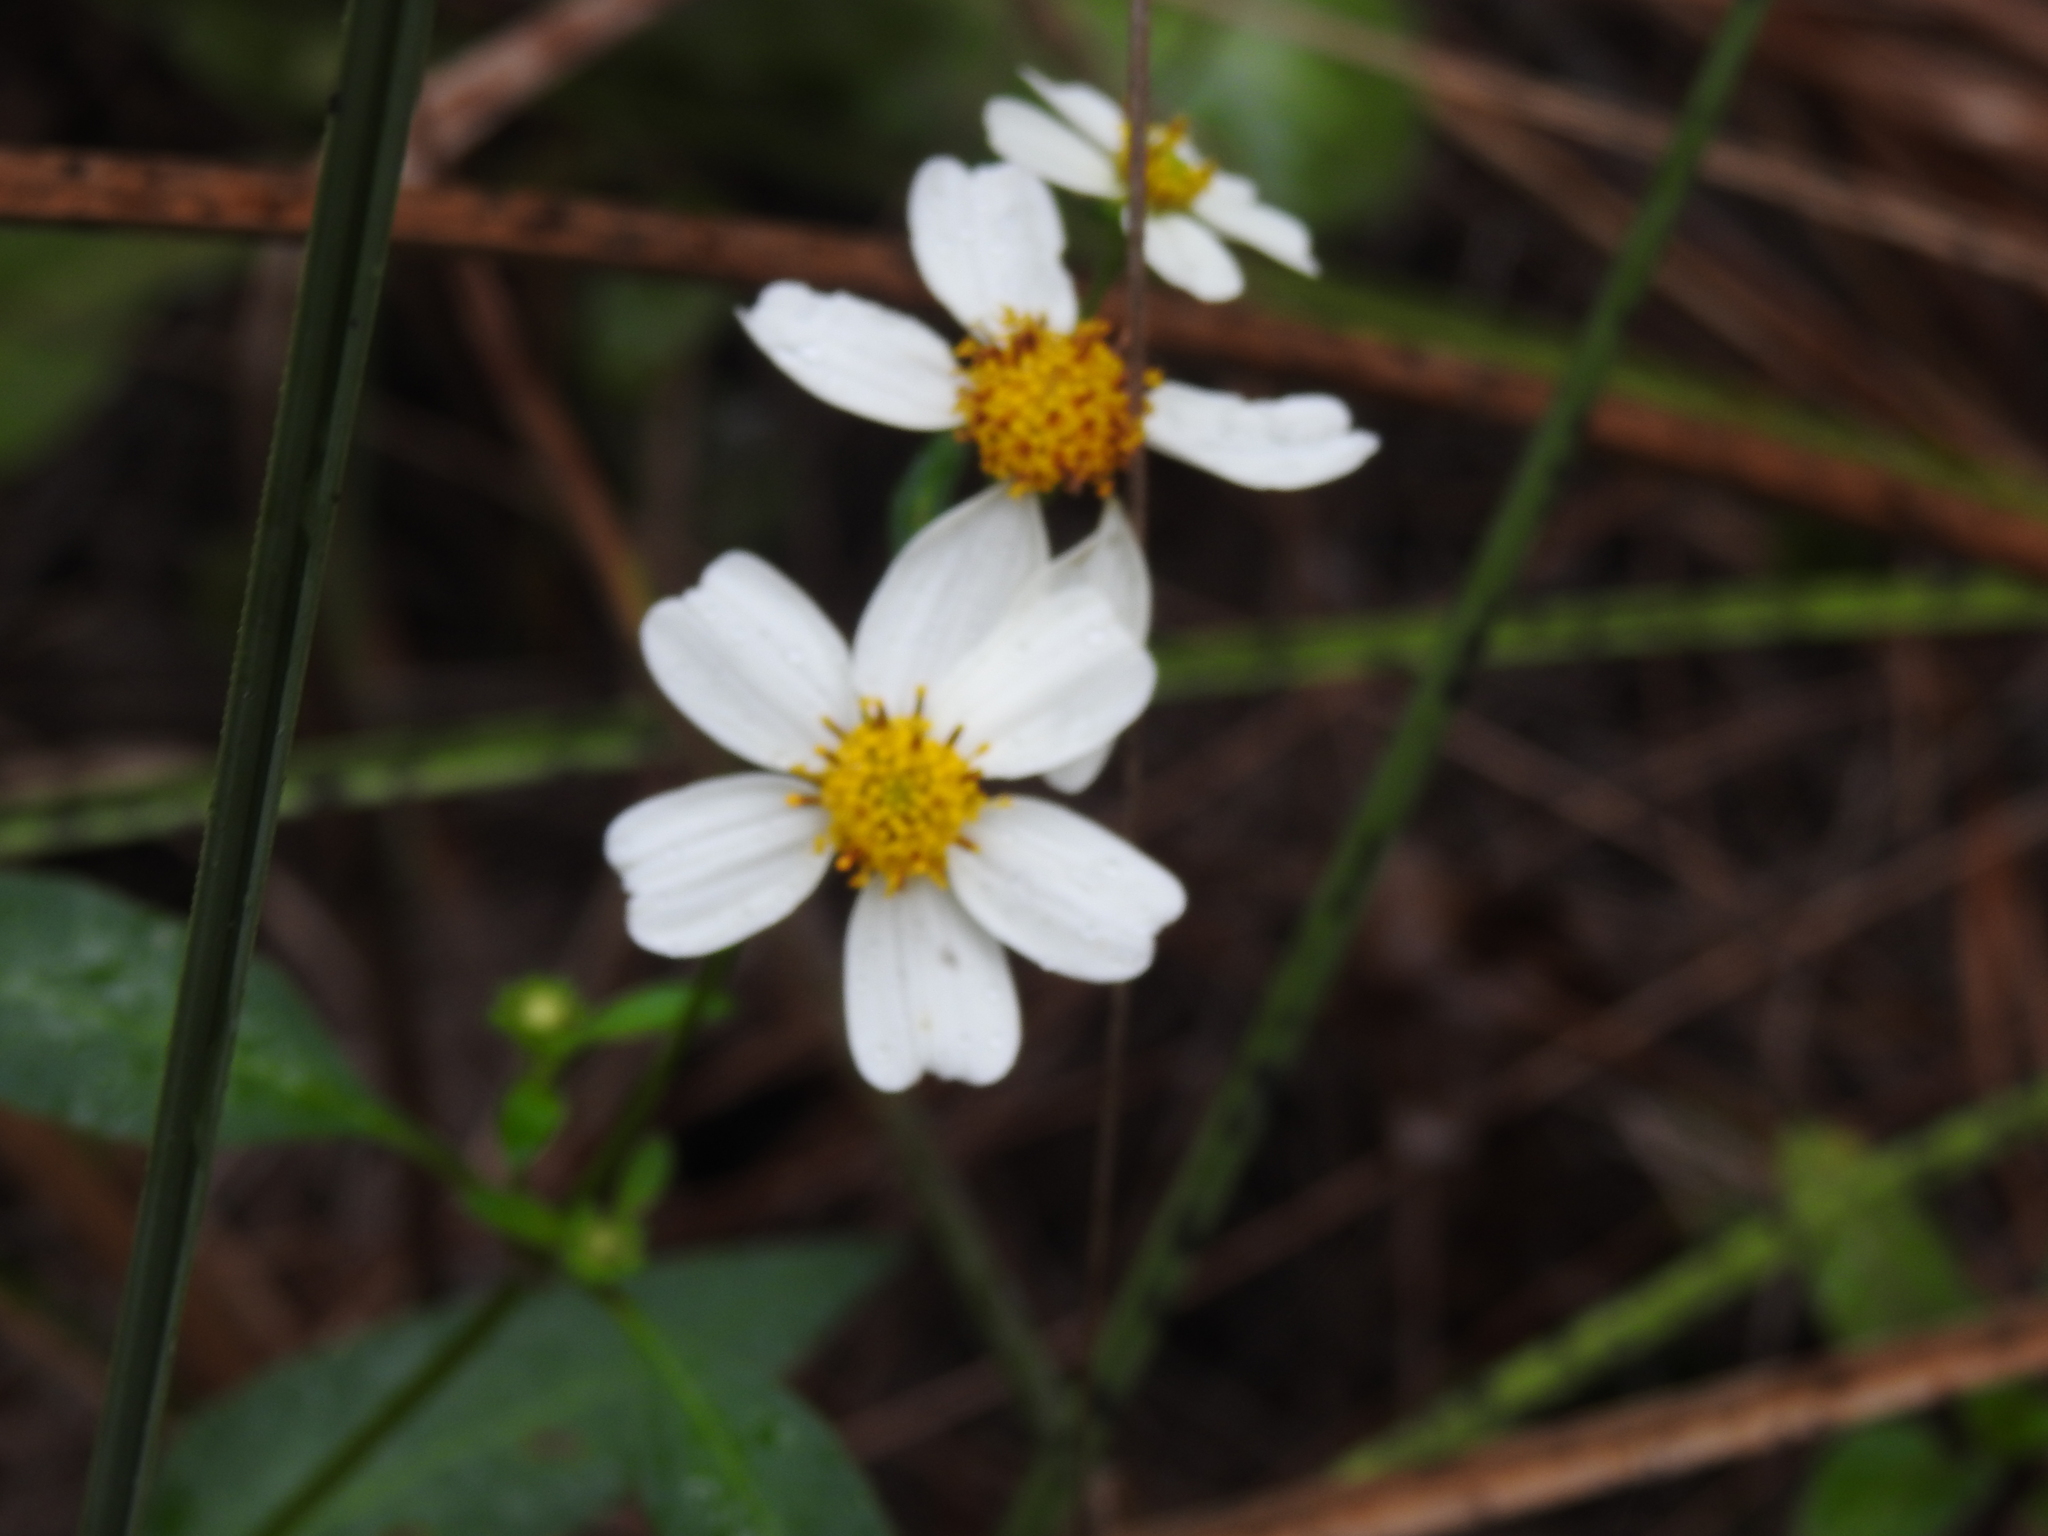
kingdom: Plantae
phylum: Tracheophyta
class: Magnoliopsida
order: Asterales
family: Asteraceae
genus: Bidens
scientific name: Bidens alba
